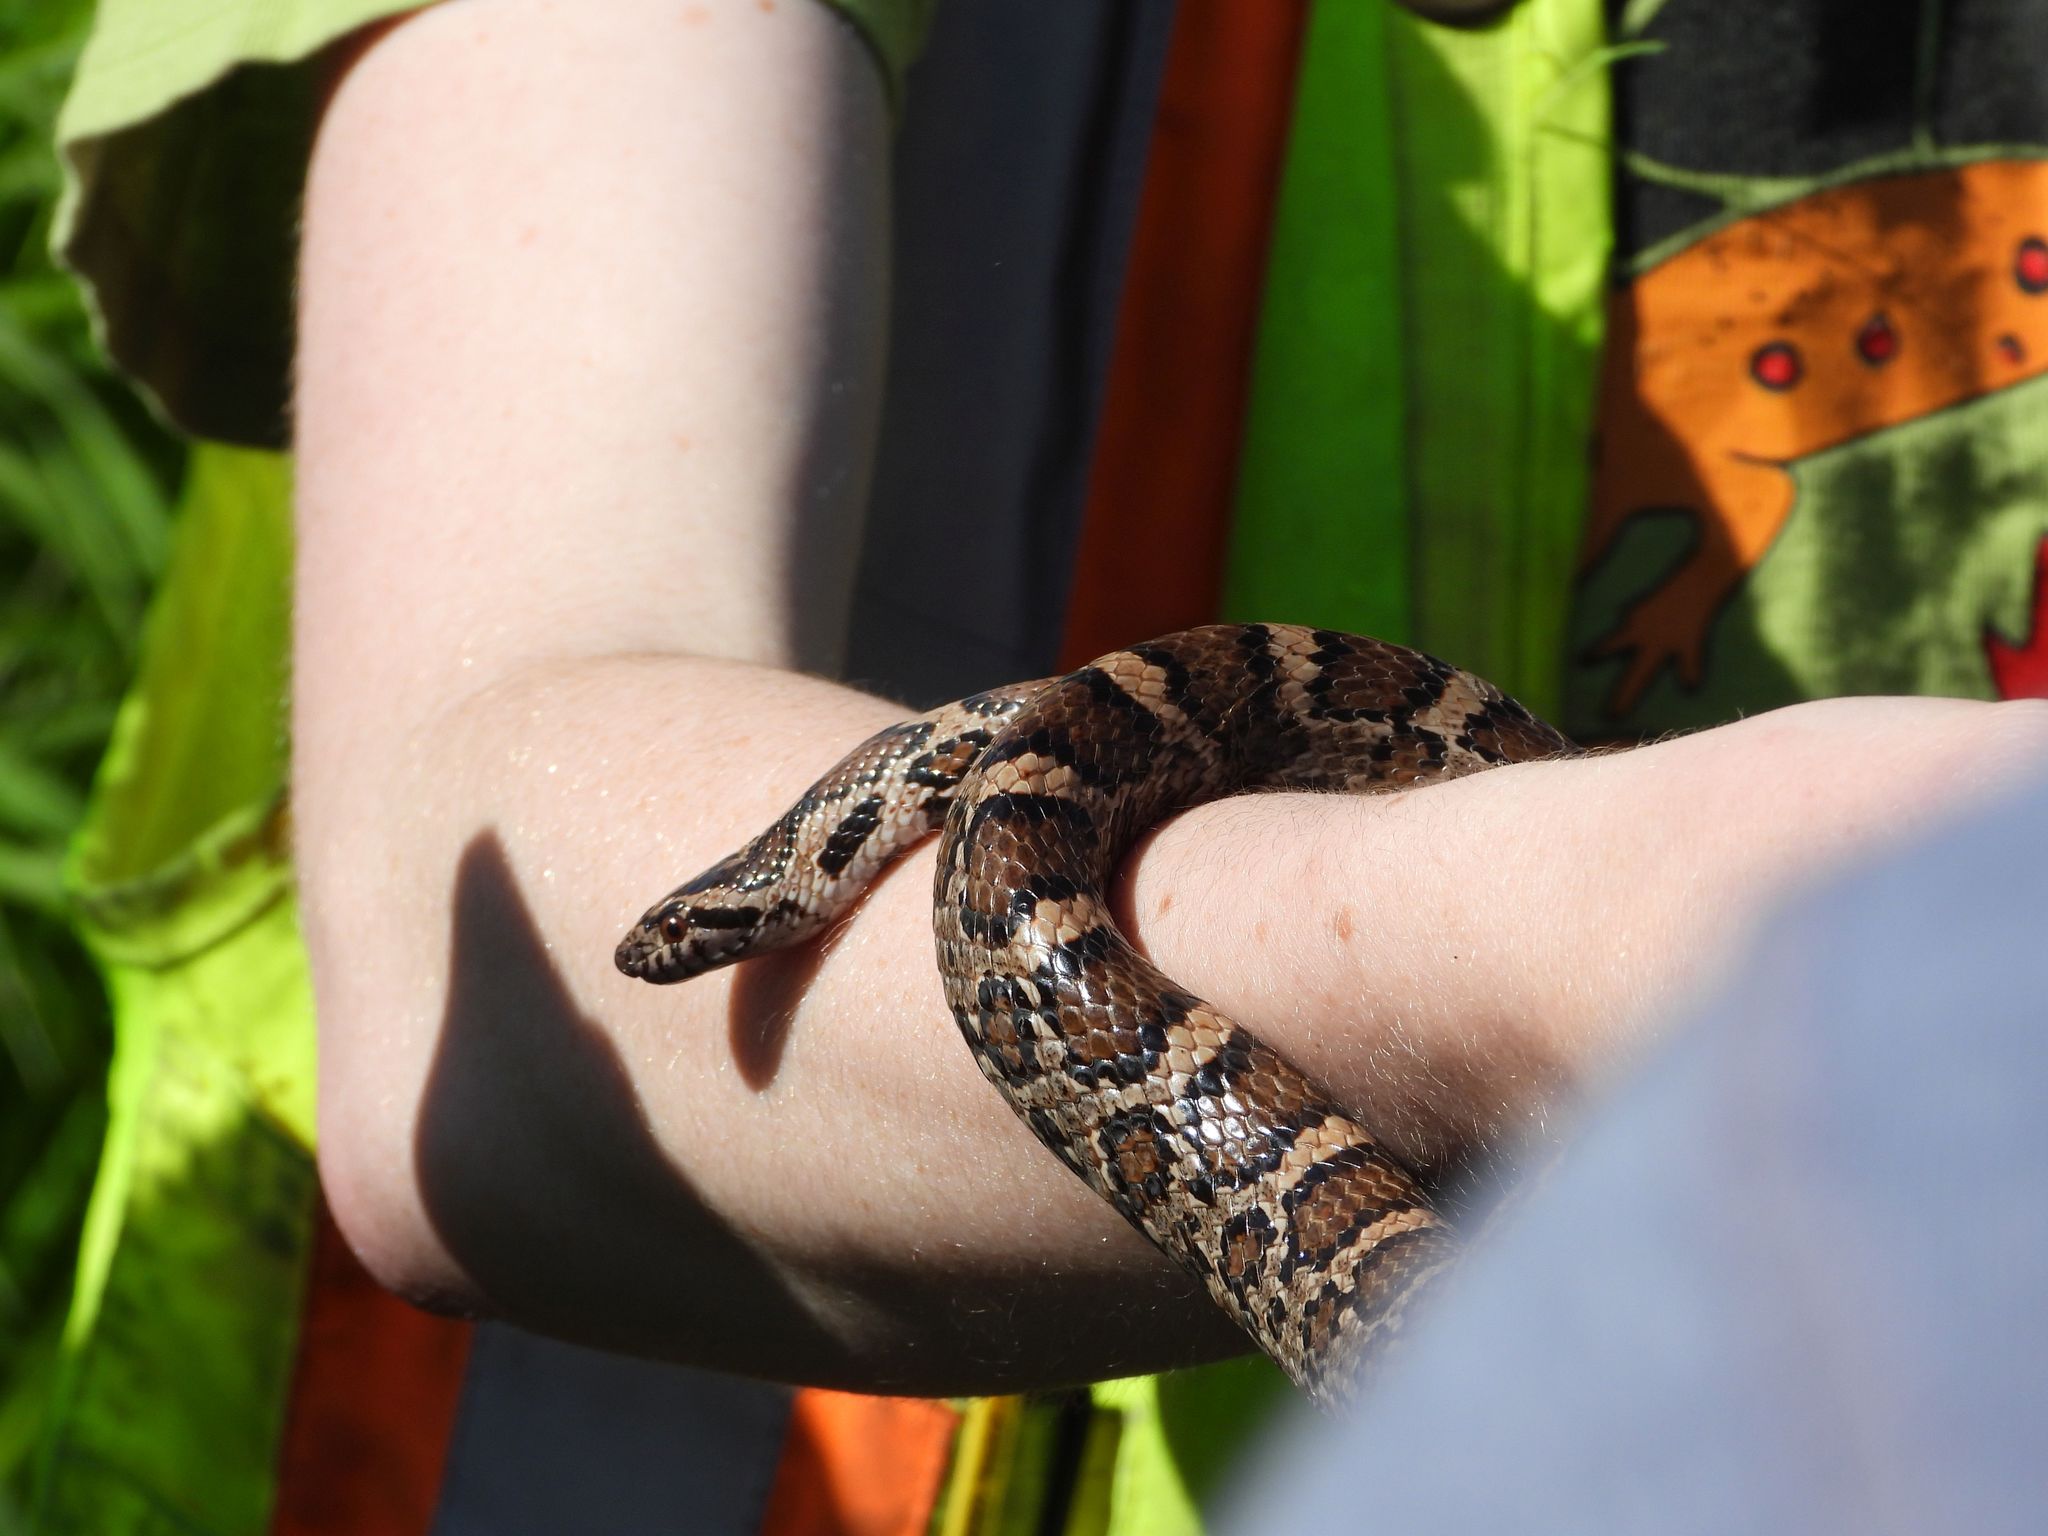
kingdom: Animalia
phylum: Chordata
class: Squamata
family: Colubridae
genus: Lampropeltis
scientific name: Lampropeltis triangulum
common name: Eastern milksnake
